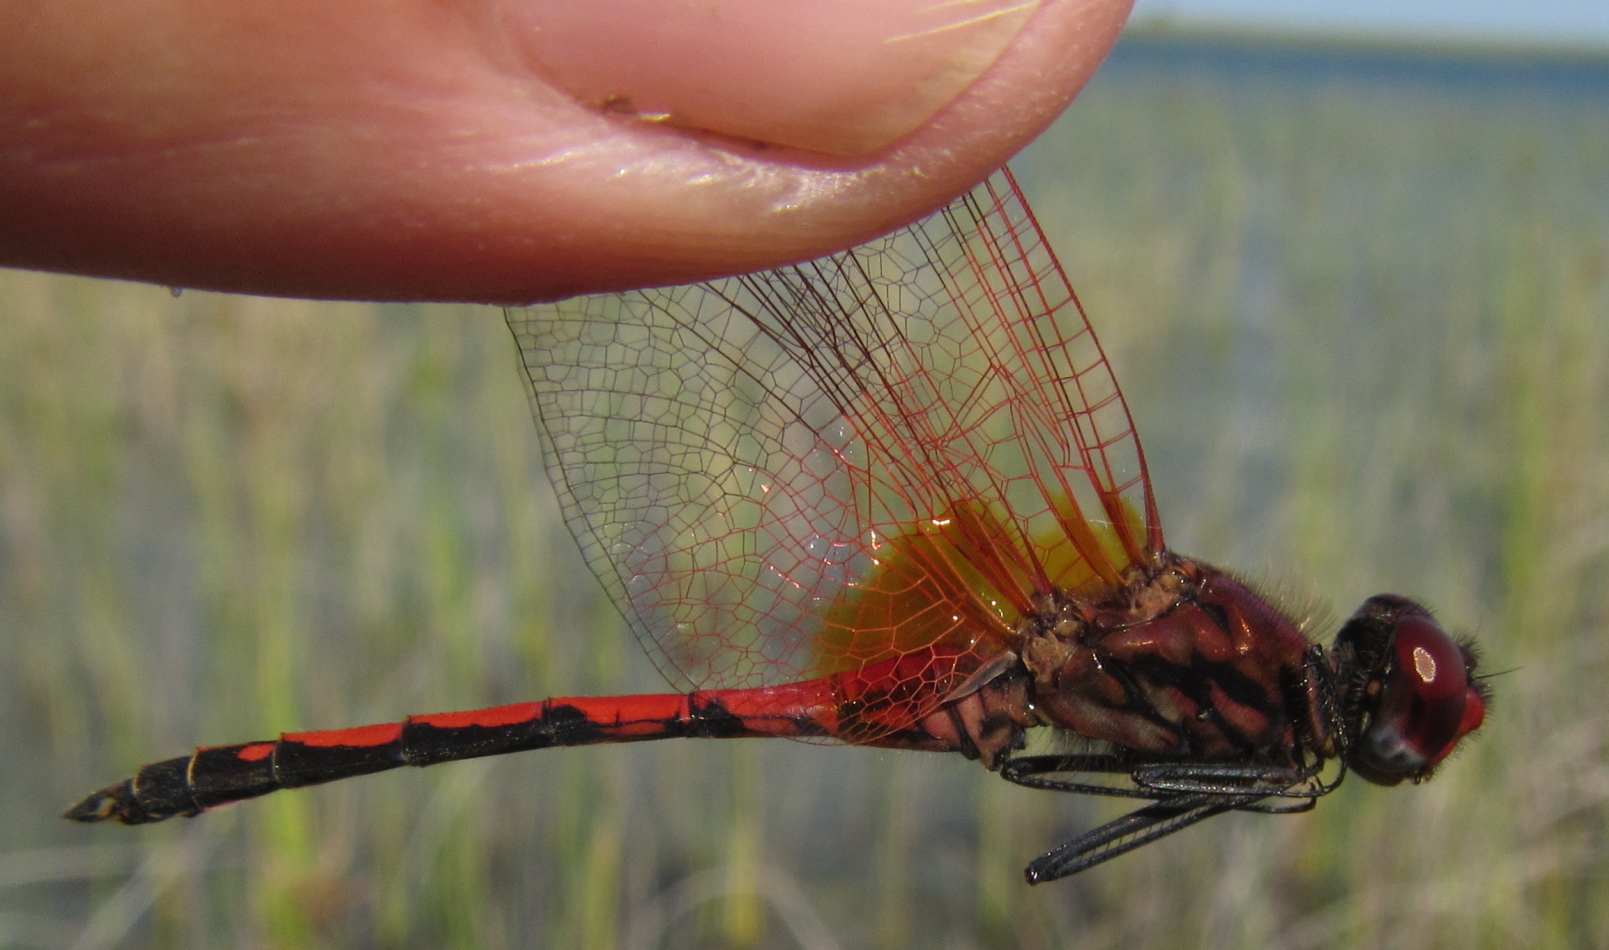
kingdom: Animalia
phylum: Arthropoda
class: Insecta
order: Odonata
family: Libellulidae
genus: Trithemis
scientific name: Trithemis arteriosa
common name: Red-veined dropwing
